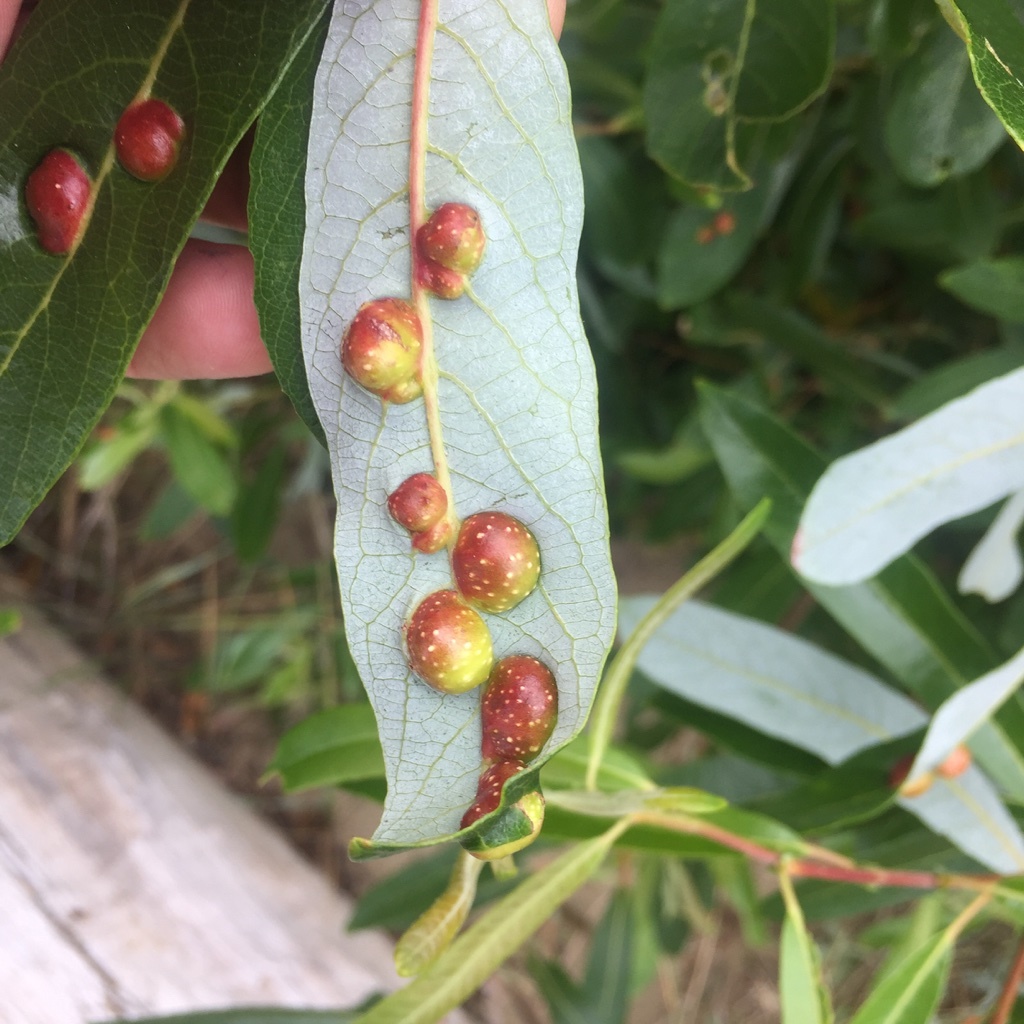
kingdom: Animalia
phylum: Arthropoda
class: Insecta
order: Hymenoptera
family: Tenthredinidae
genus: Euura
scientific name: Euura
